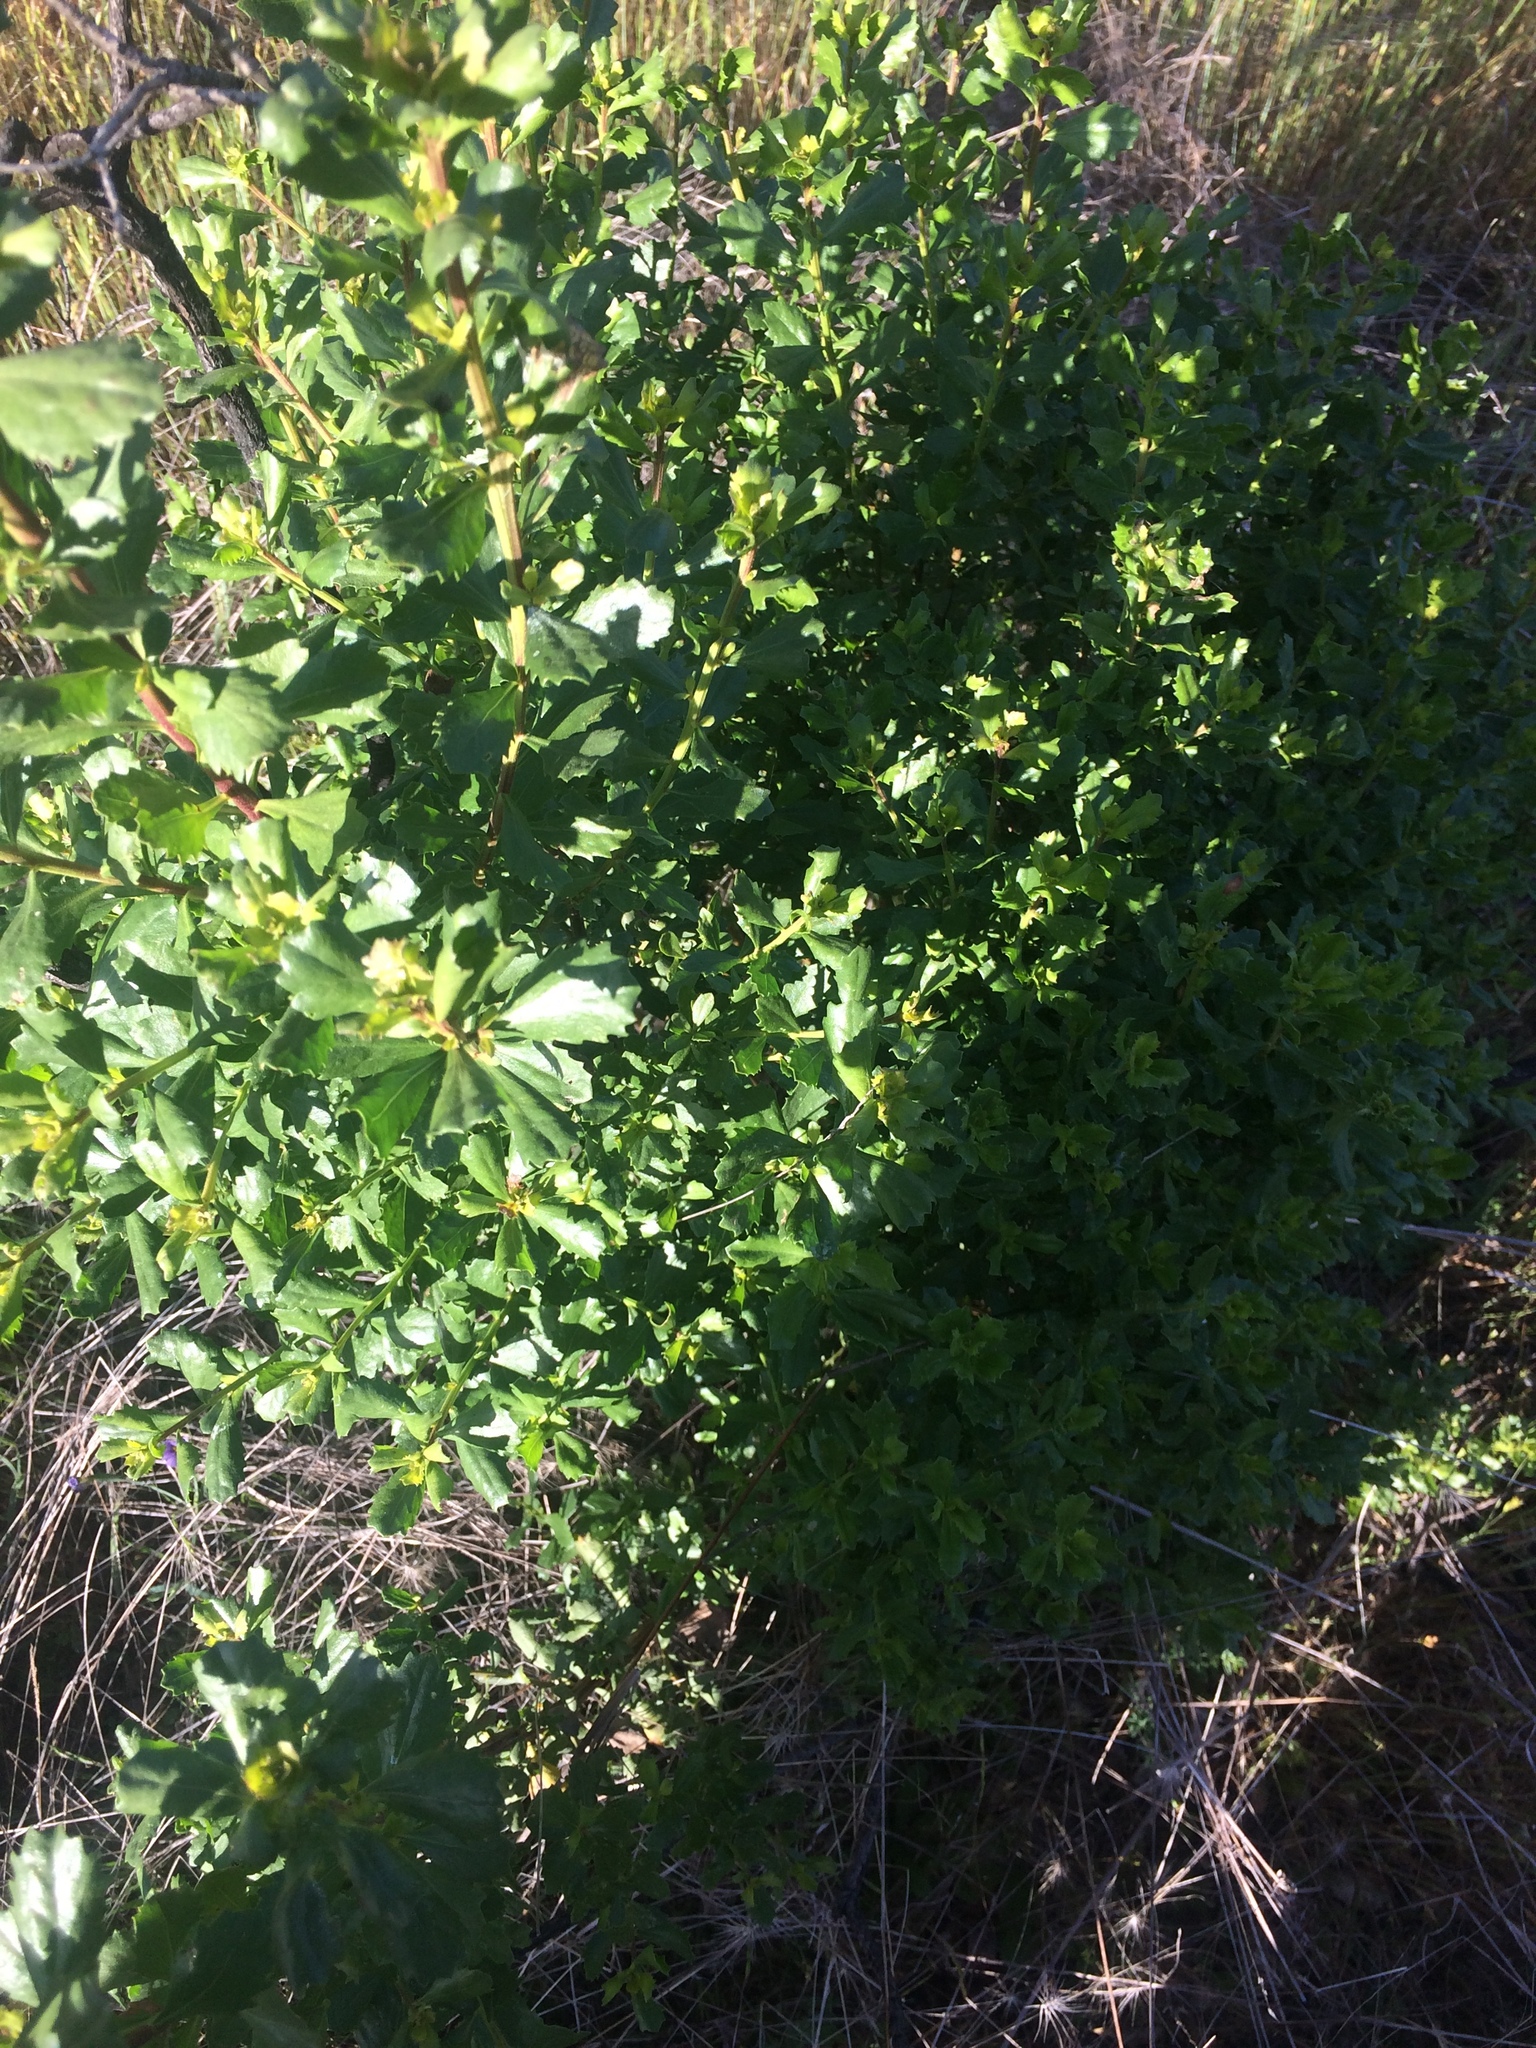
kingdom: Plantae
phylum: Tracheophyta
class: Magnoliopsida
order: Asterales
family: Asteraceae
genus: Baccharis
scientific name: Baccharis pilularis
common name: Coyotebrush
